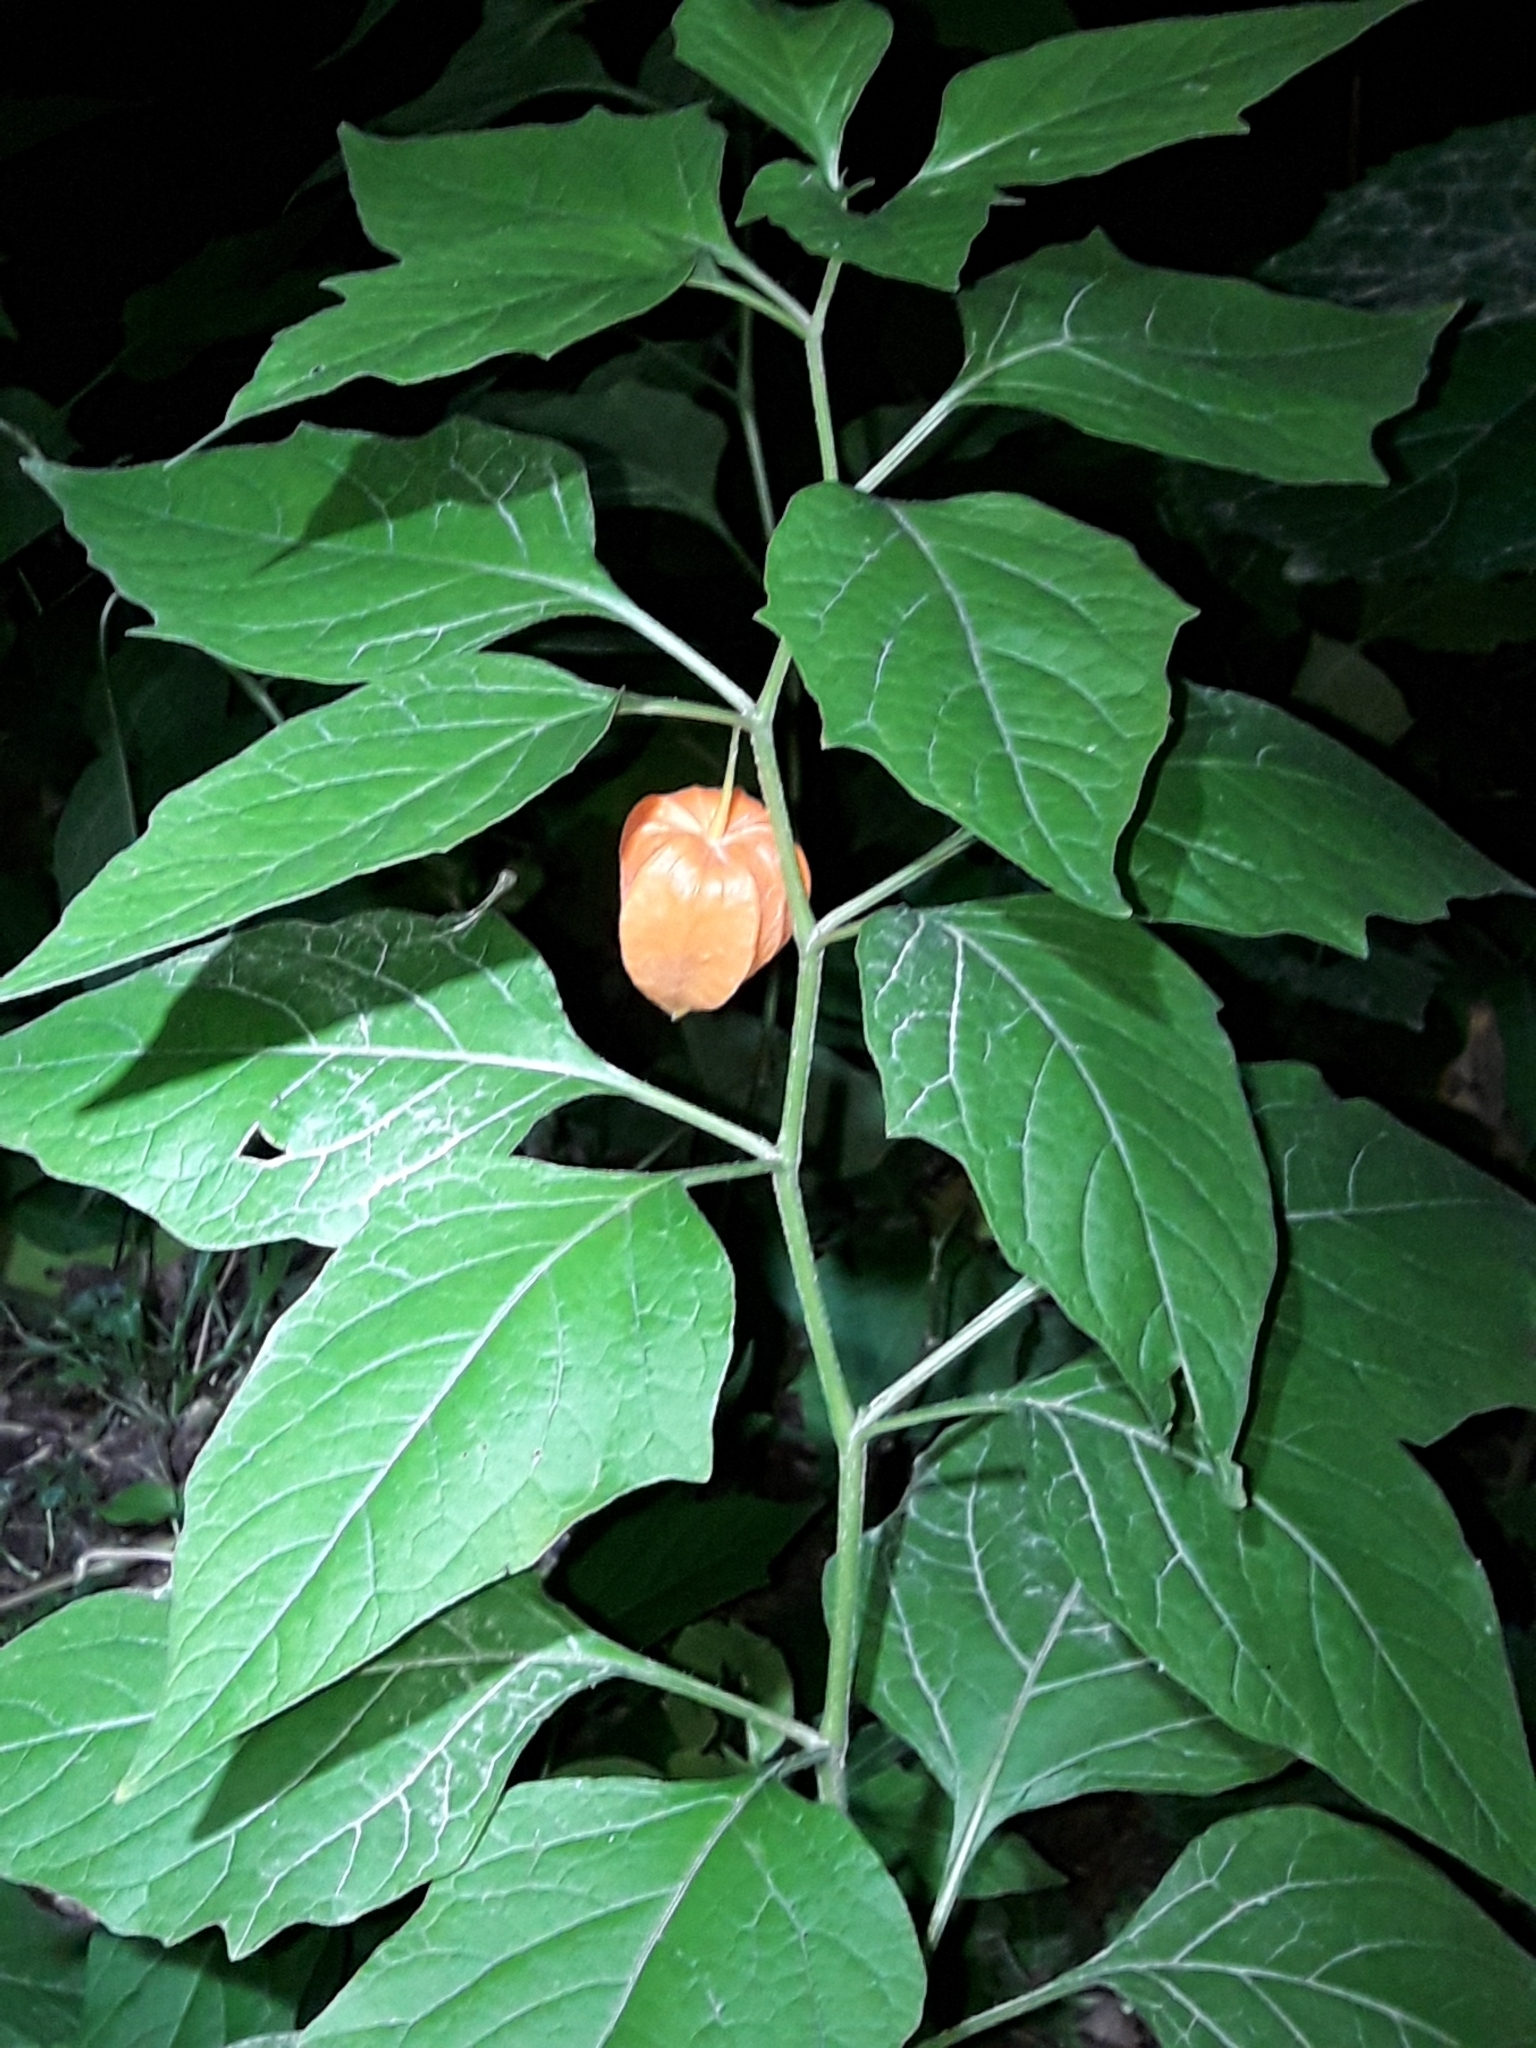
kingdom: Plantae
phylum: Tracheophyta
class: Magnoliopsida
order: Solanales
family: Solanaceae
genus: Alkekengi
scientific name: Alkekengi officinarum
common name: Japanese-lantern
